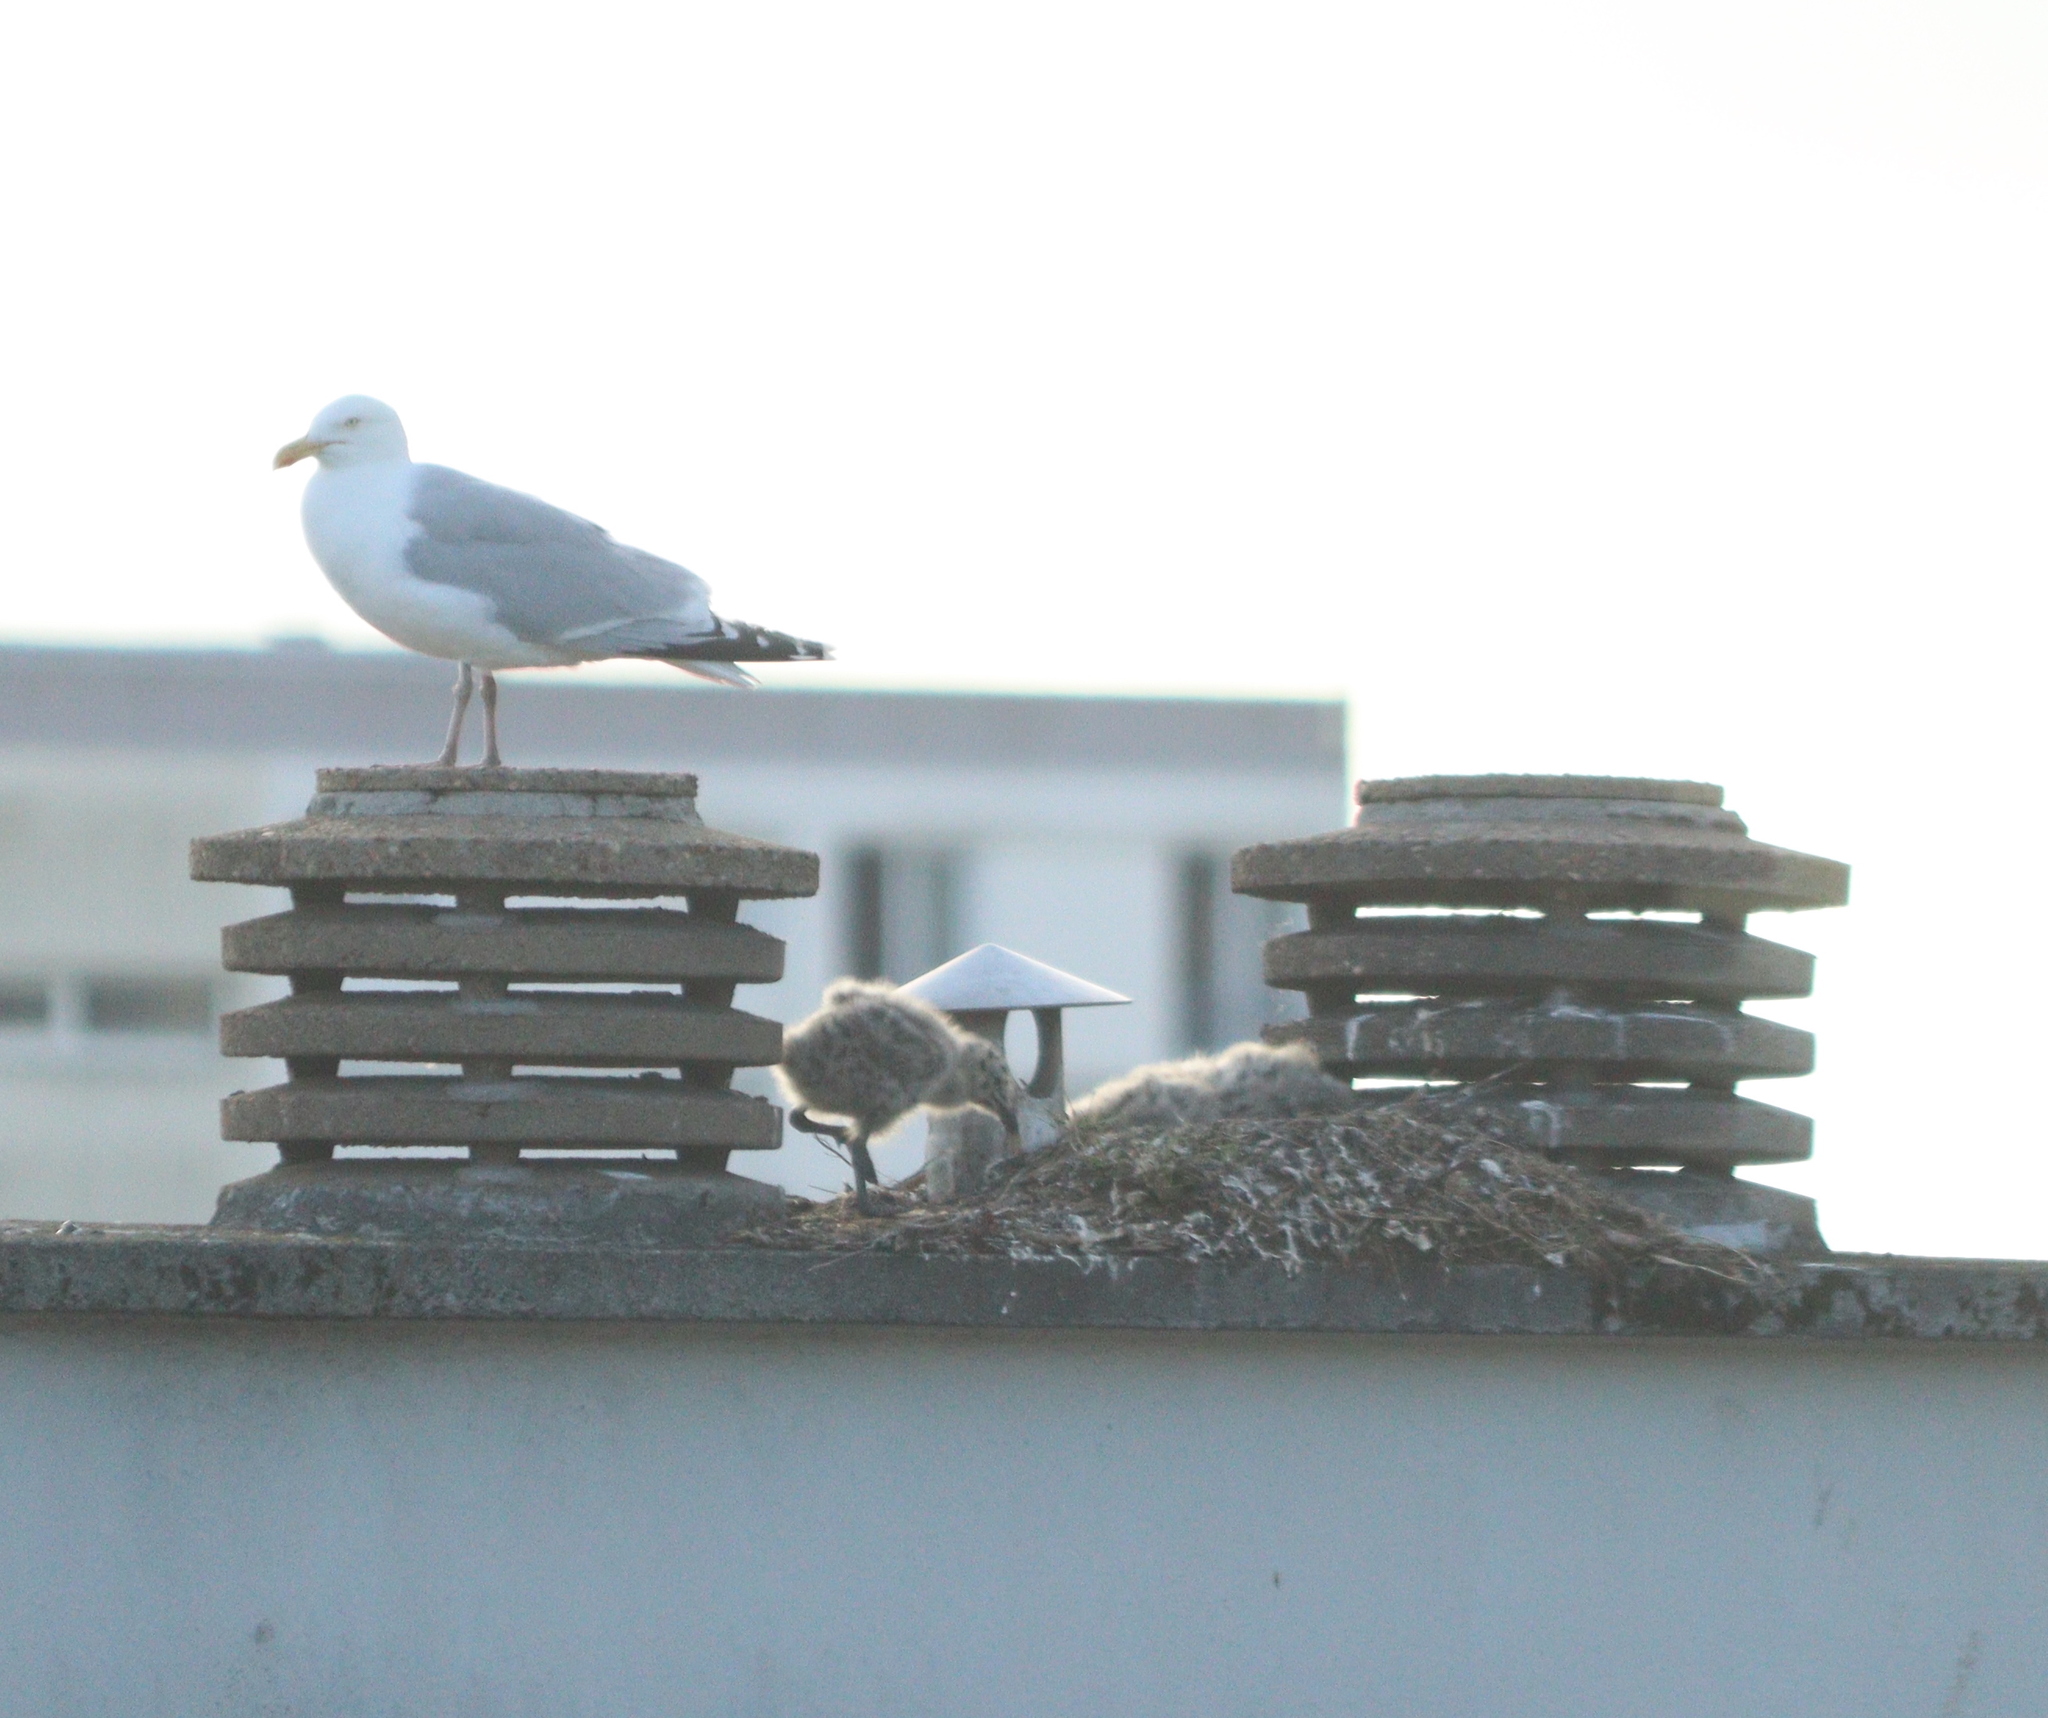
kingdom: Animalia
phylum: Chordata
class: Aves
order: Charadriiformes
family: Laridae
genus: Larus
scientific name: Larus argentatus
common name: Herring gull
